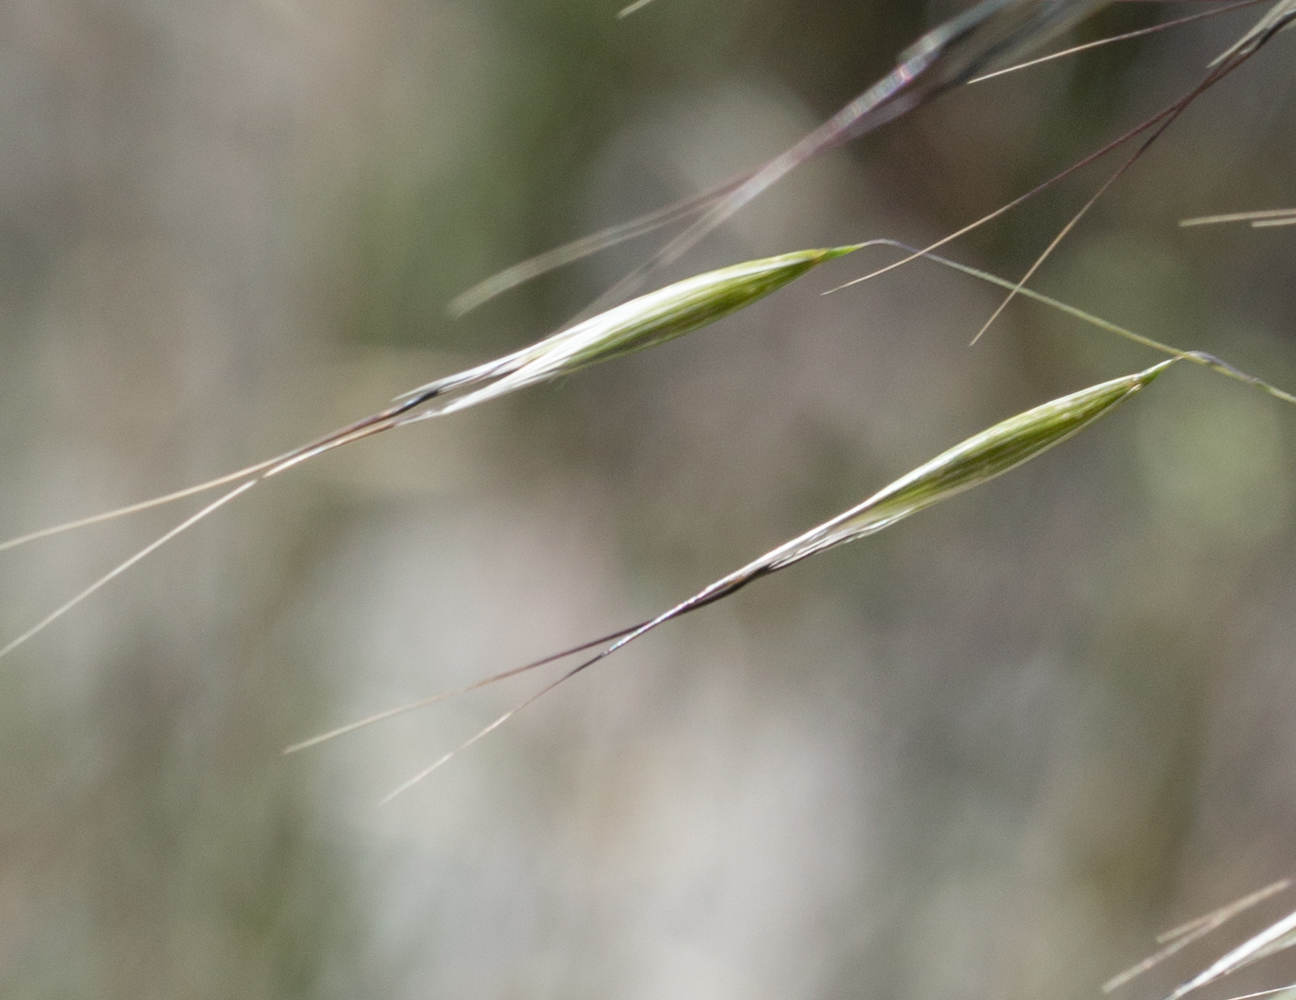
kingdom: Plantae
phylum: Tracheophyta
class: Liliopsida
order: Poales
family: Poaceae
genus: Avena
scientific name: Avena barbata
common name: Slender oat
